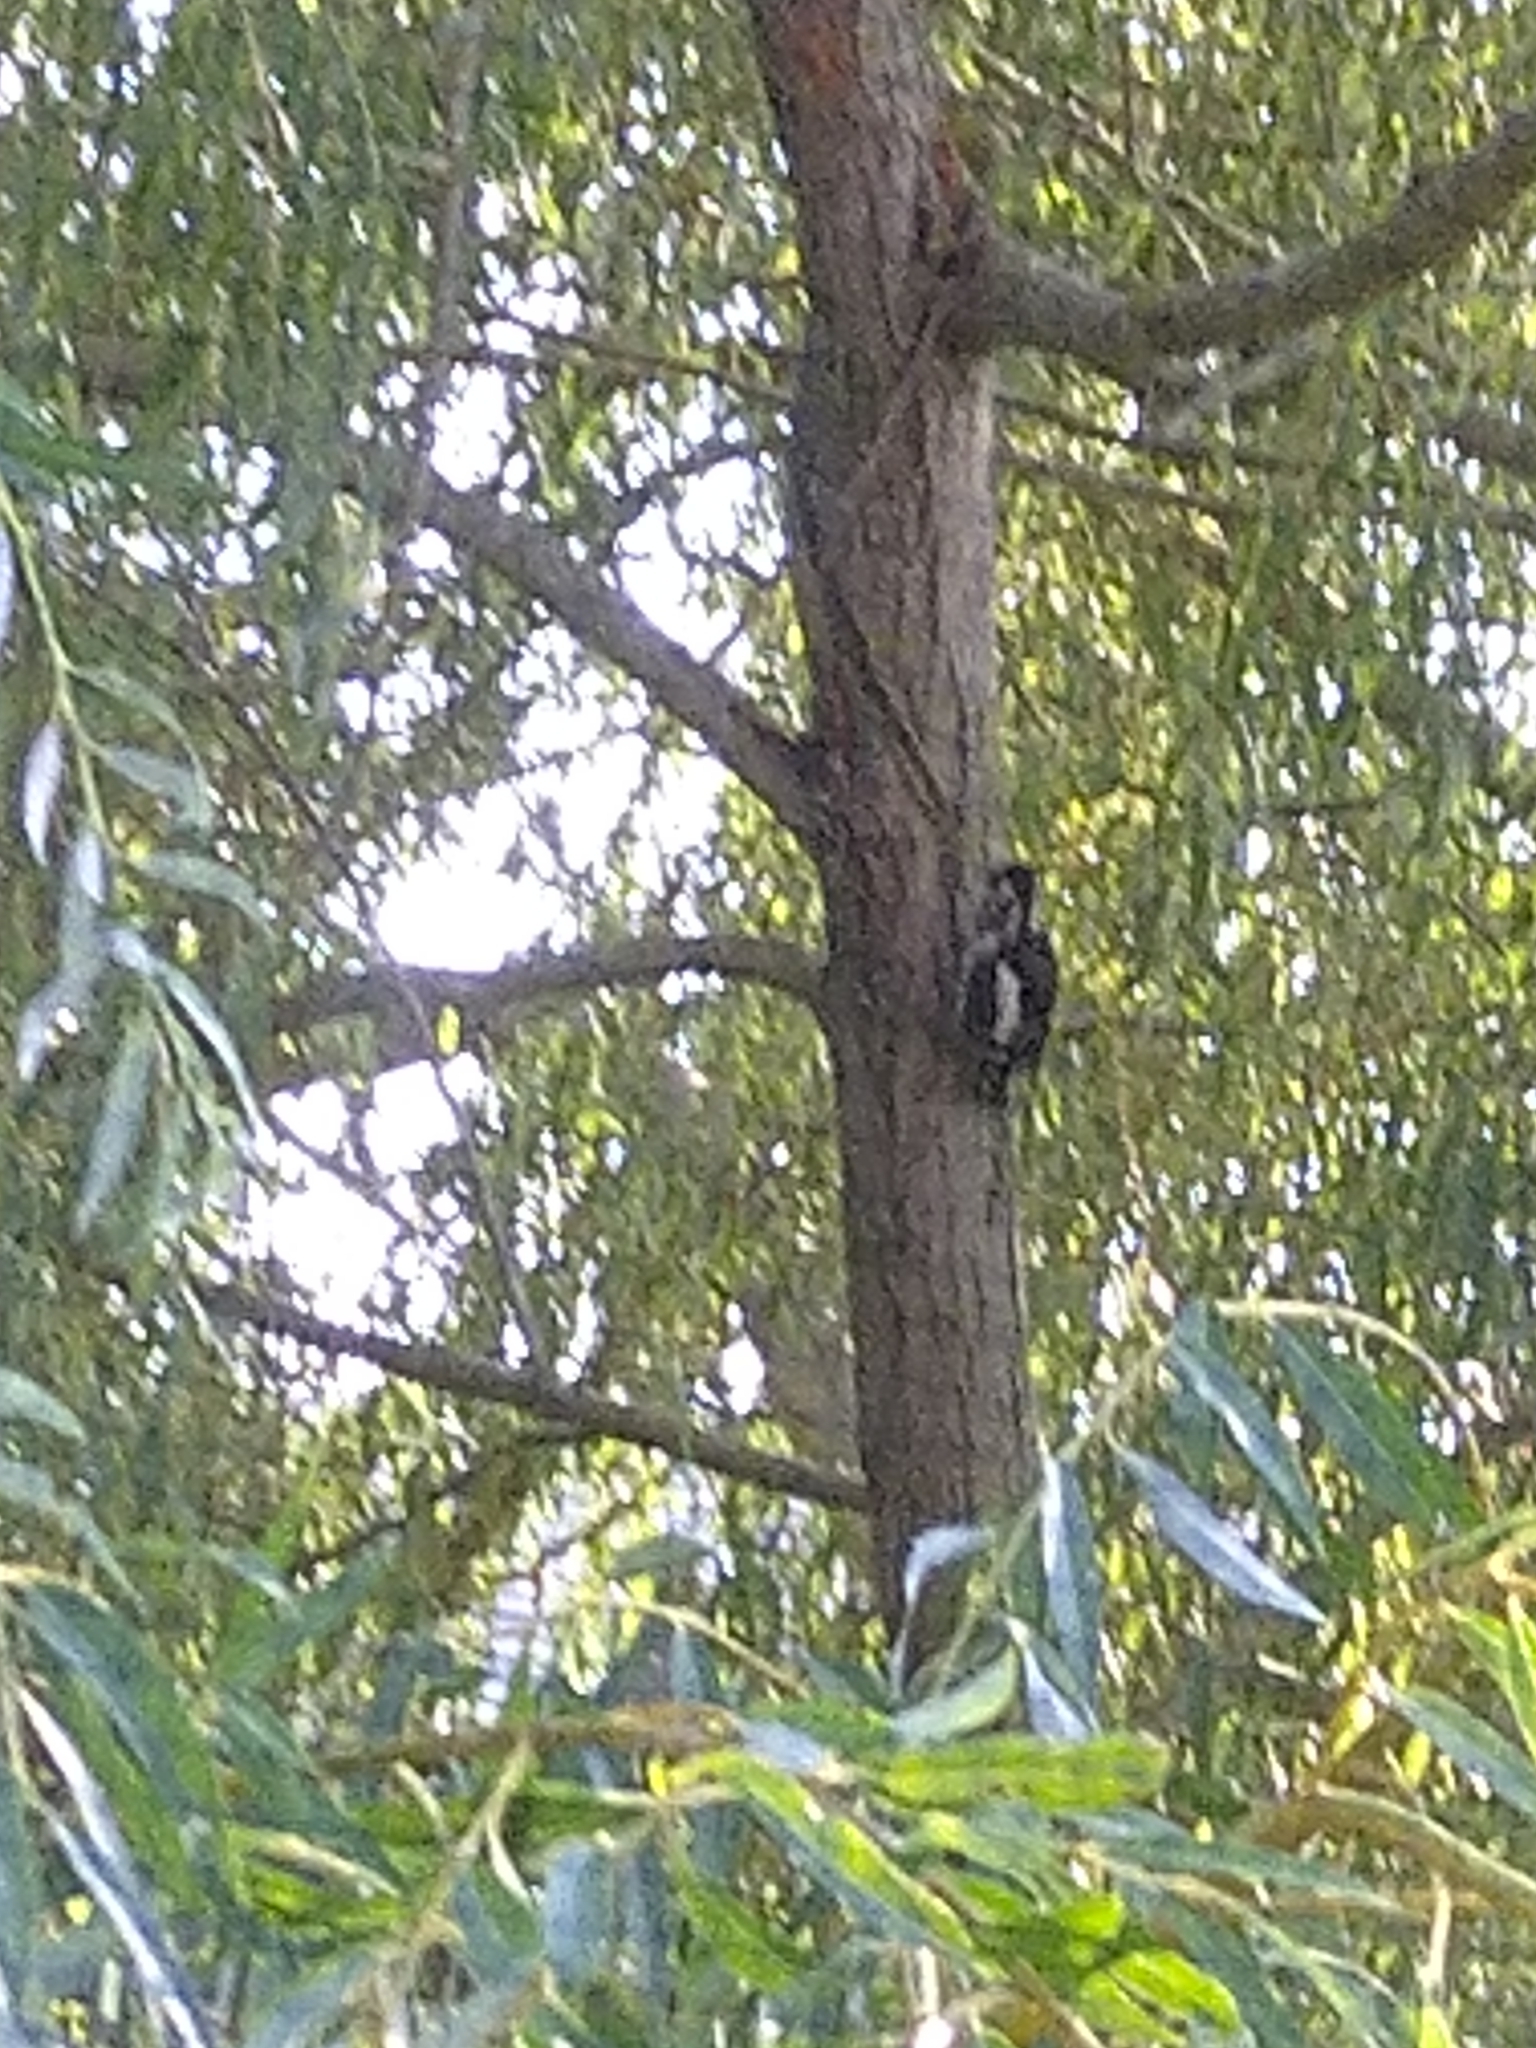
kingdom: Animalia
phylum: Chordata
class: Aves
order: Piciformes
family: Picidae
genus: Dendrocopos
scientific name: Dendrocopos major
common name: Great spotted woodpecker
